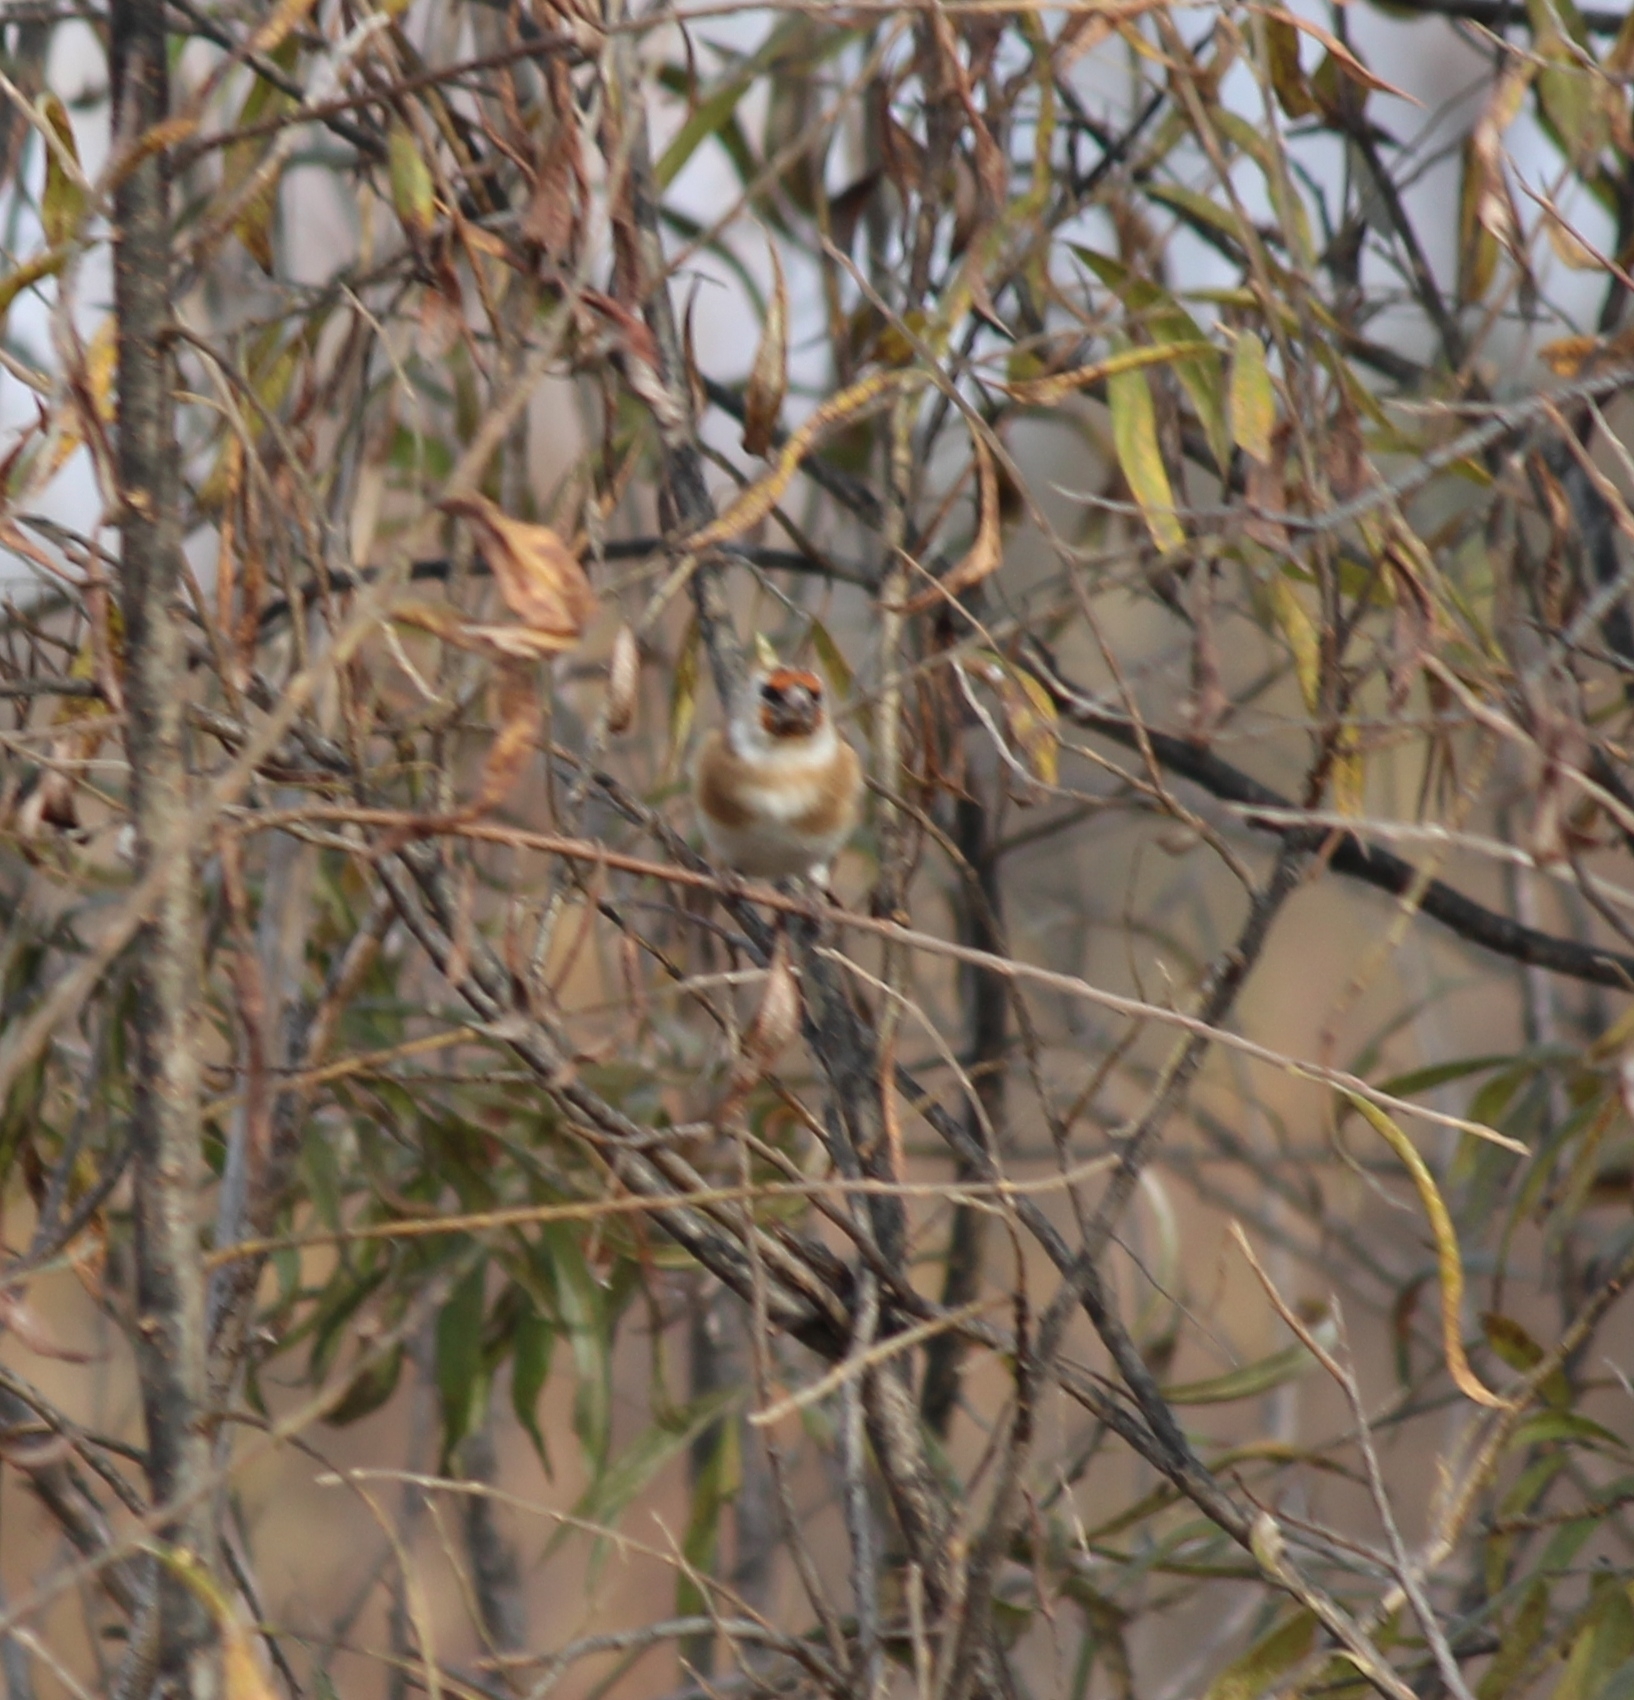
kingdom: Animalia
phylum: Chordata
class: Aves
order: Passeriformes
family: Fringillidae
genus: Carduelis
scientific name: Carduelis carduelis
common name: European goldfinch
